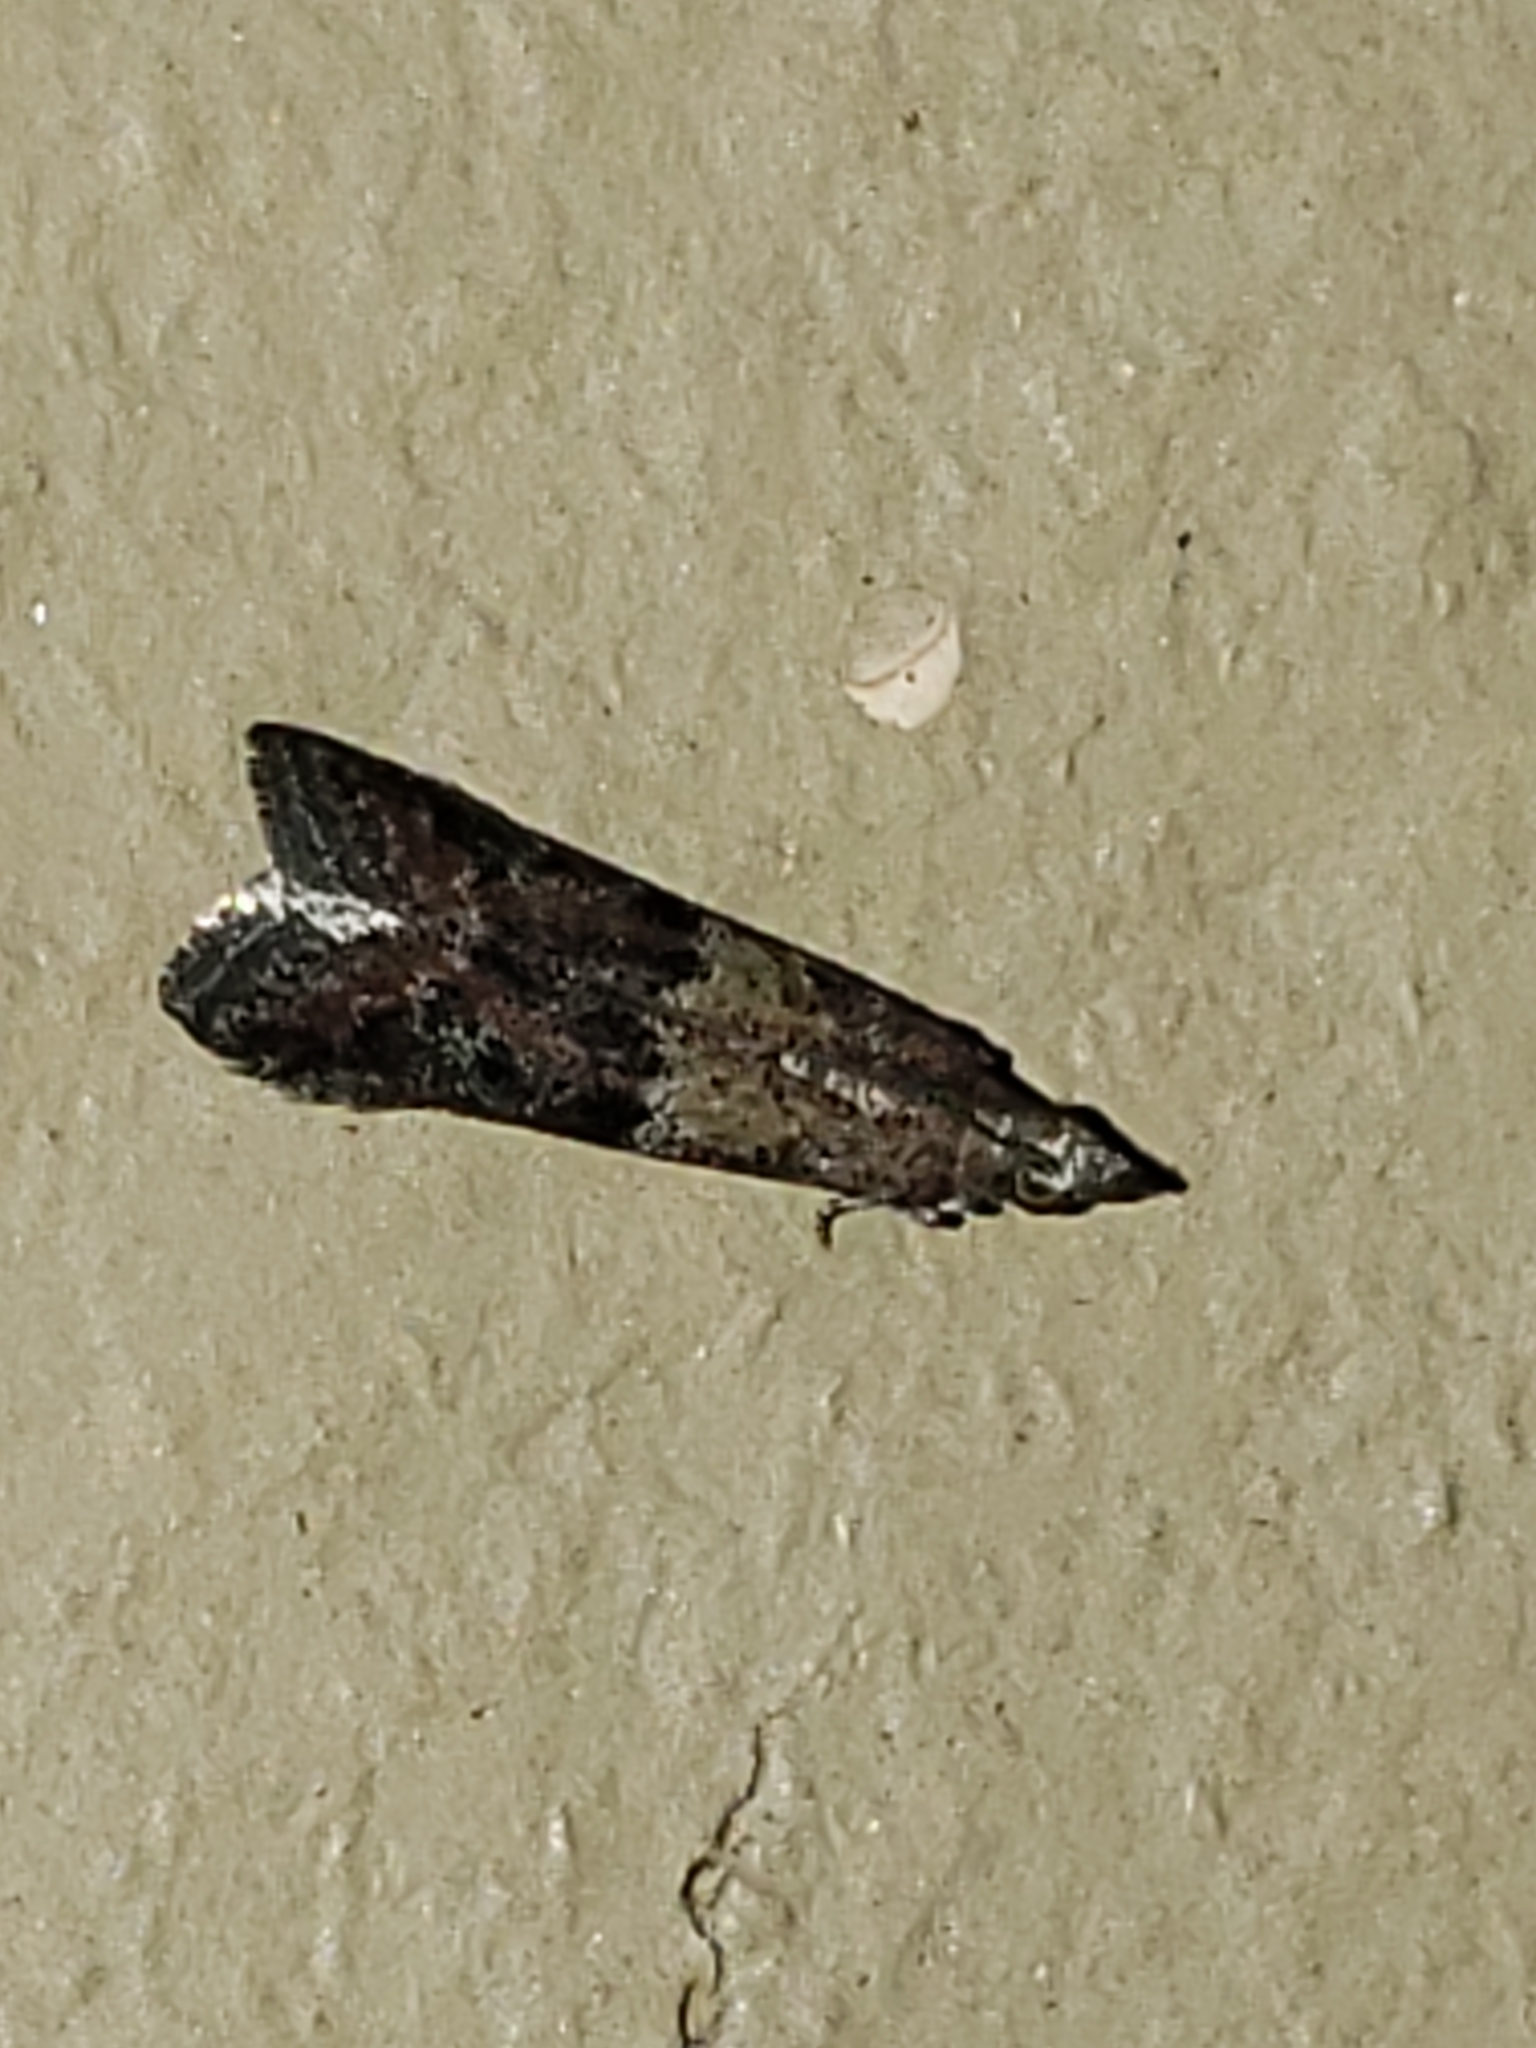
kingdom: Animalia
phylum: Arthropoda
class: Insecta
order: Lepidoptera
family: Pyralidae
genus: Ephestiodes
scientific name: Ephestiodes infimella
